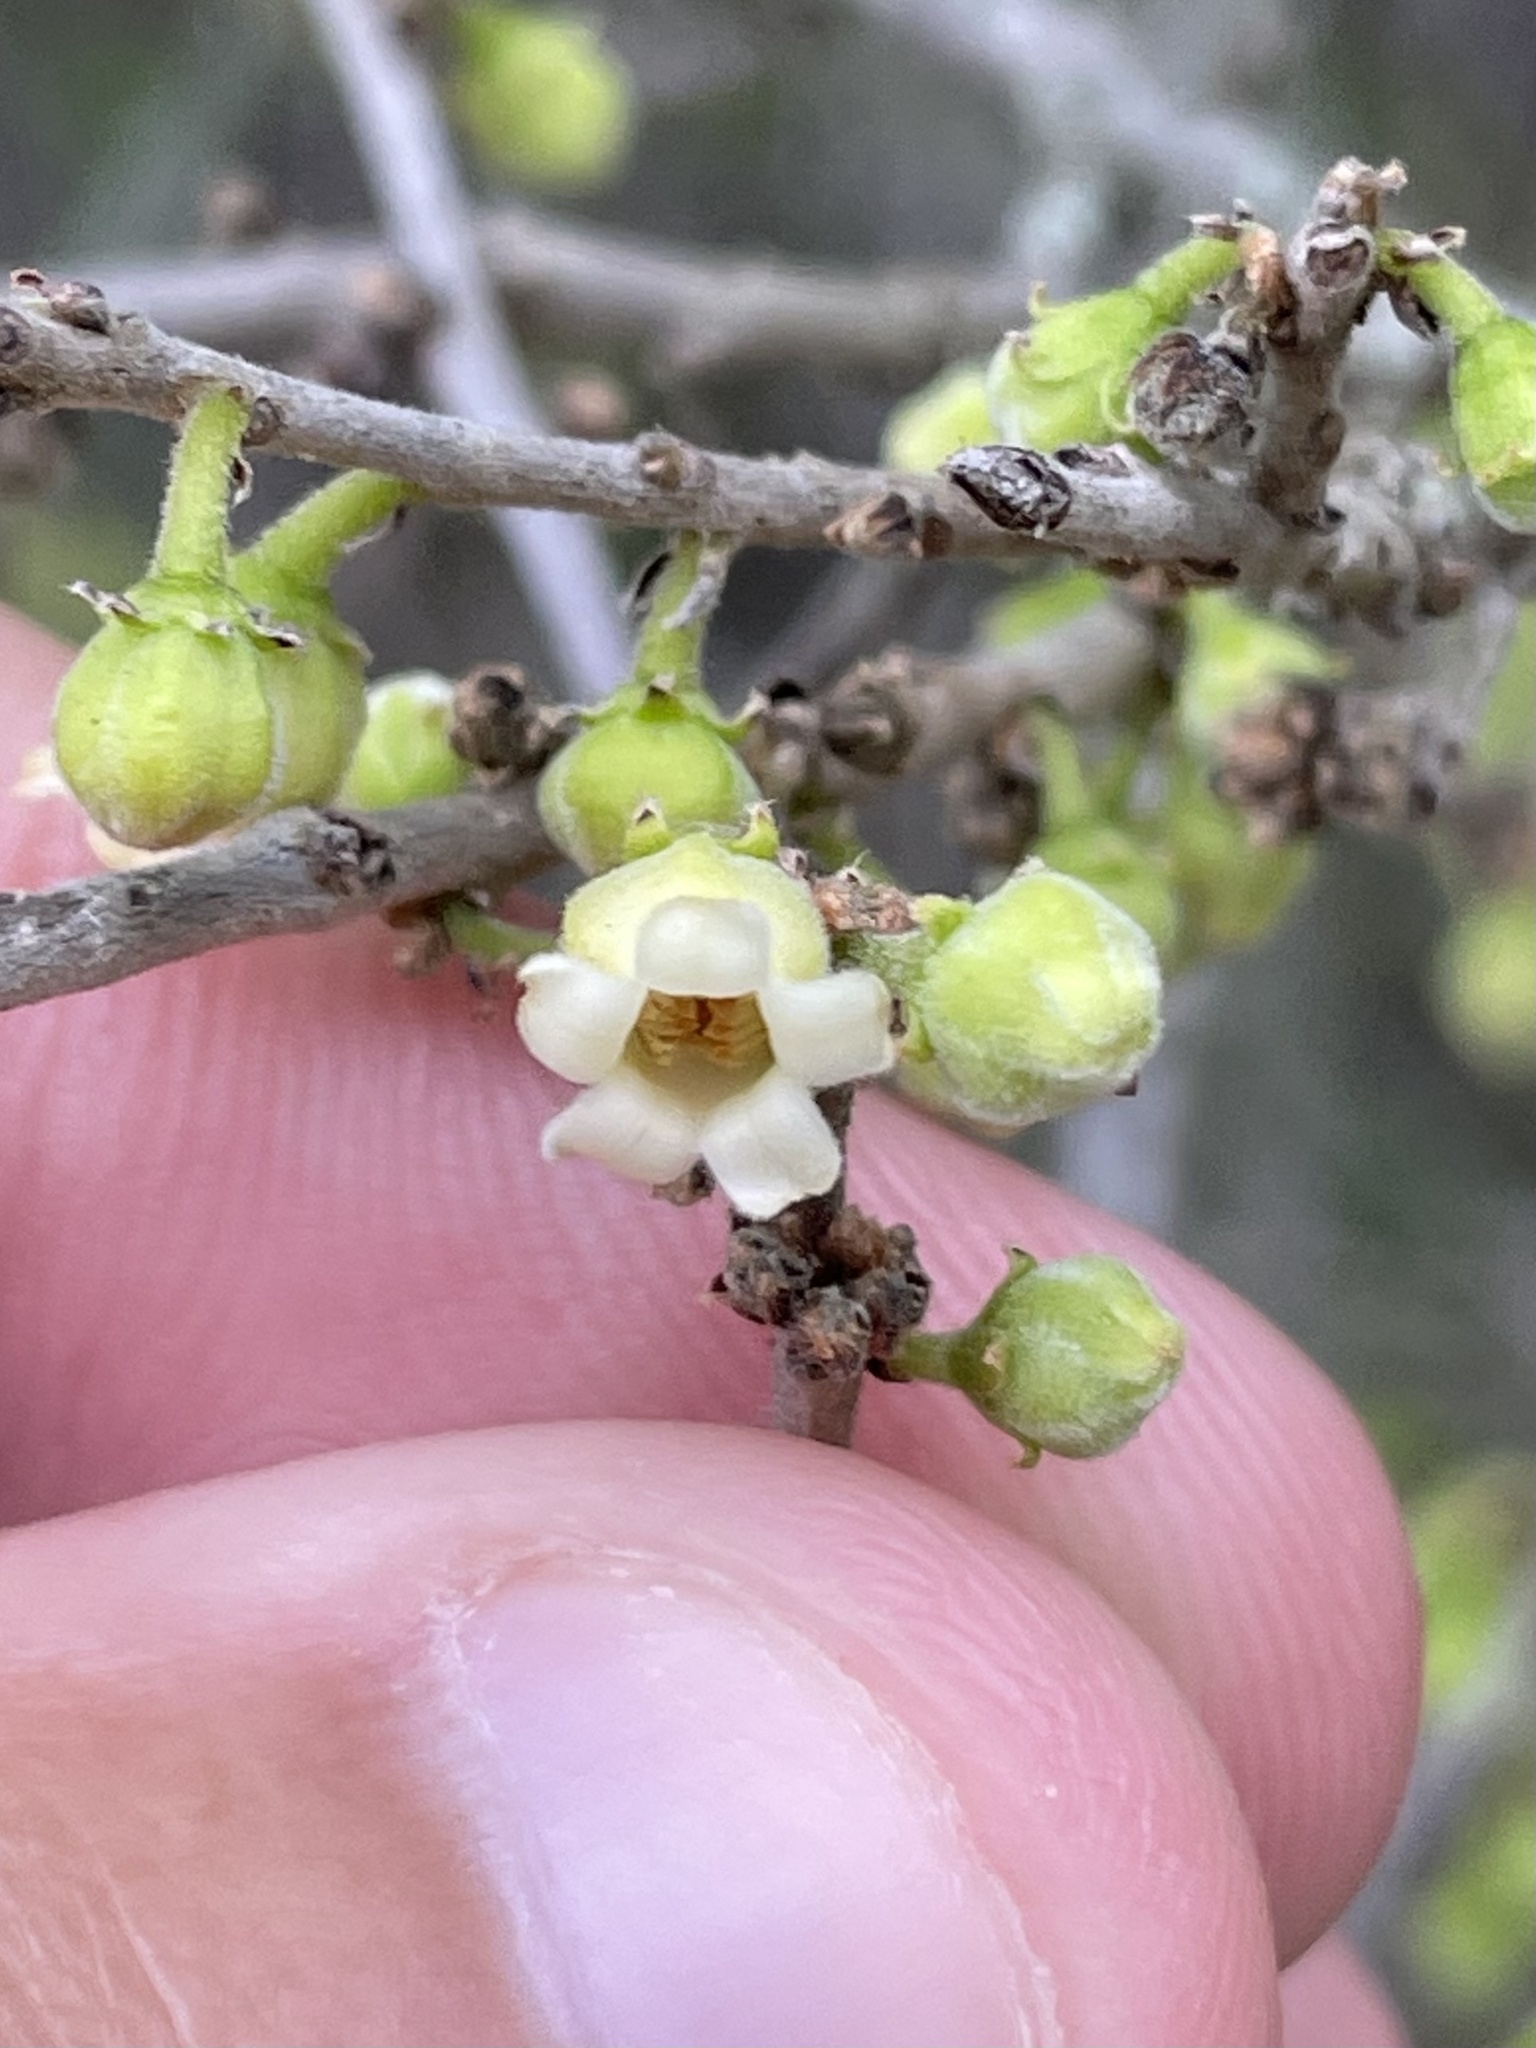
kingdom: Plantae
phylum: Tracheophyta
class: Magnoliopsida
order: Ericales
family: Ebenaceae
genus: Diospyros
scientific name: Diospyros texana
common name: Texas persimmon
